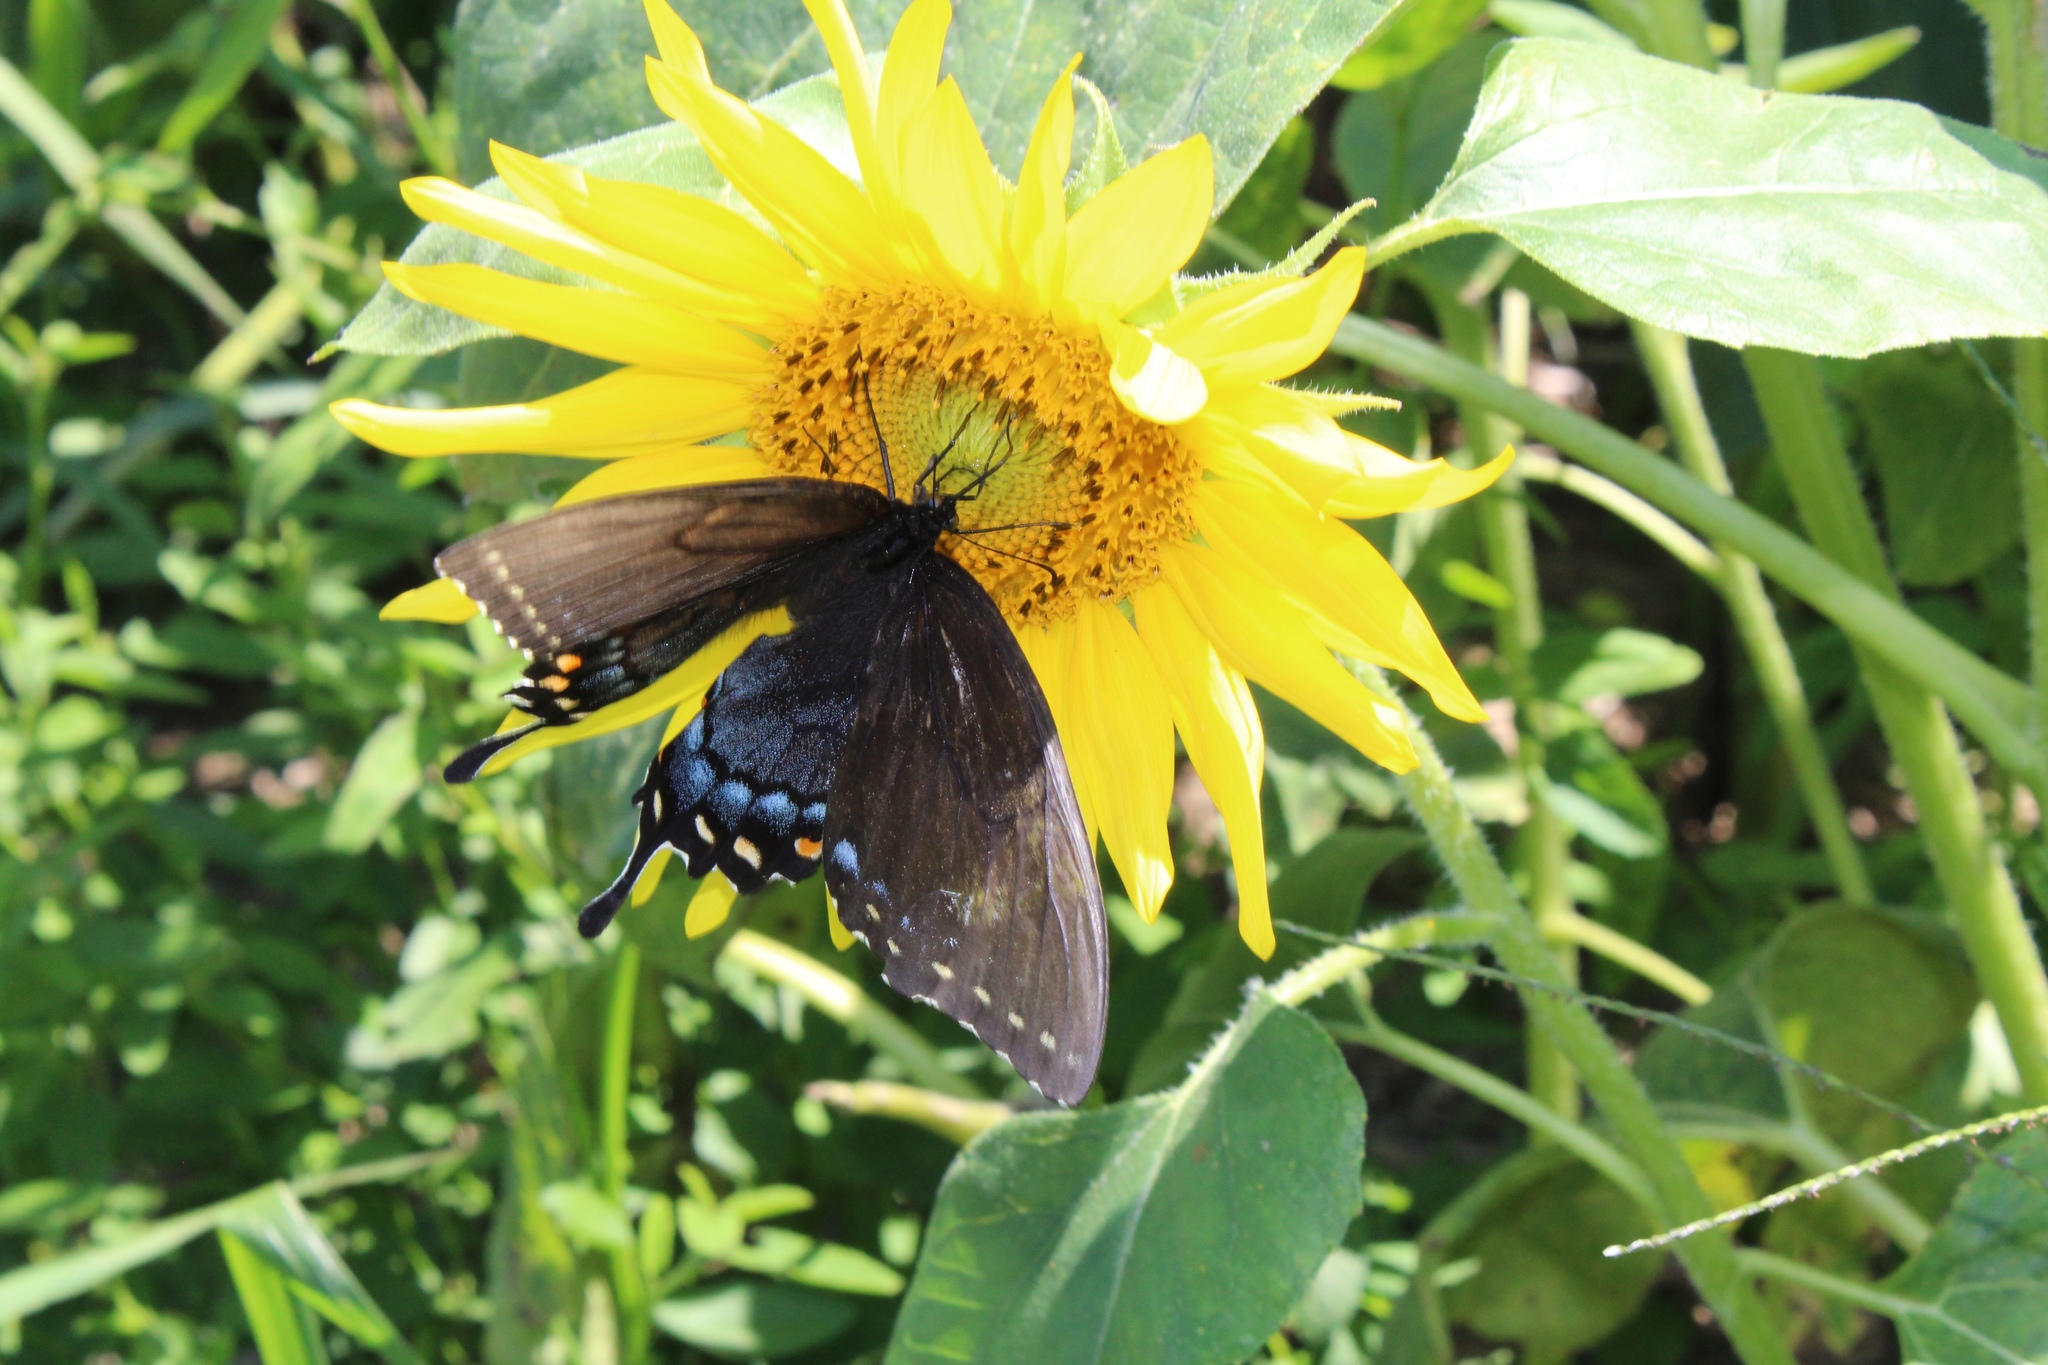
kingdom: Animalia
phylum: Arthropoda
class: Insecta
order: Lepidoptera
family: Papilionidae
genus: Papilio
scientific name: Papilio glaucus
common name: Tiger swallowtail
